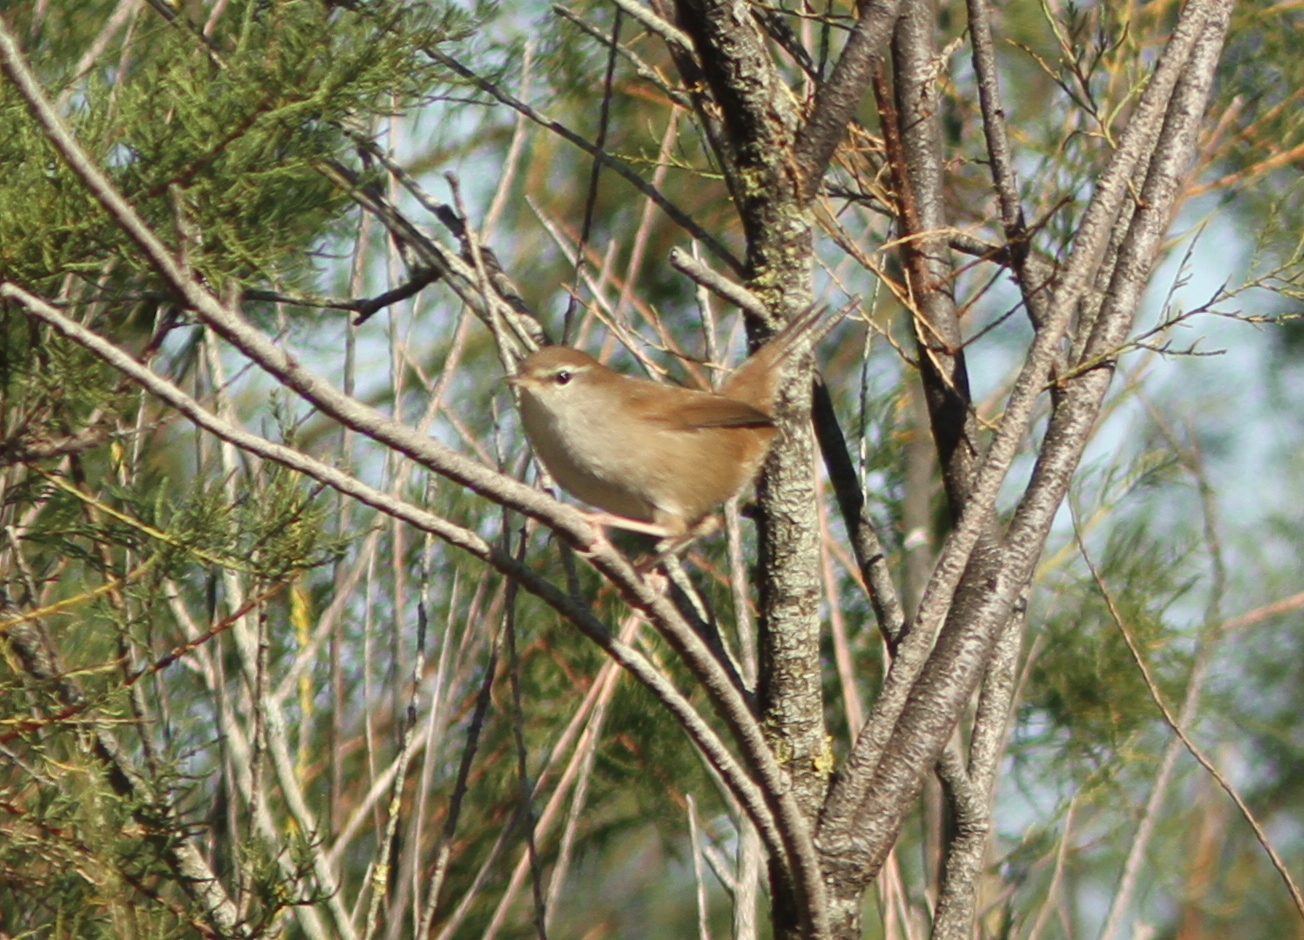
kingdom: Animalia
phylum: Chordata
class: Aves
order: Passeriformes
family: Cettiidae
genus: Cettia
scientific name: Cettia cetti
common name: Cetti's warbler
